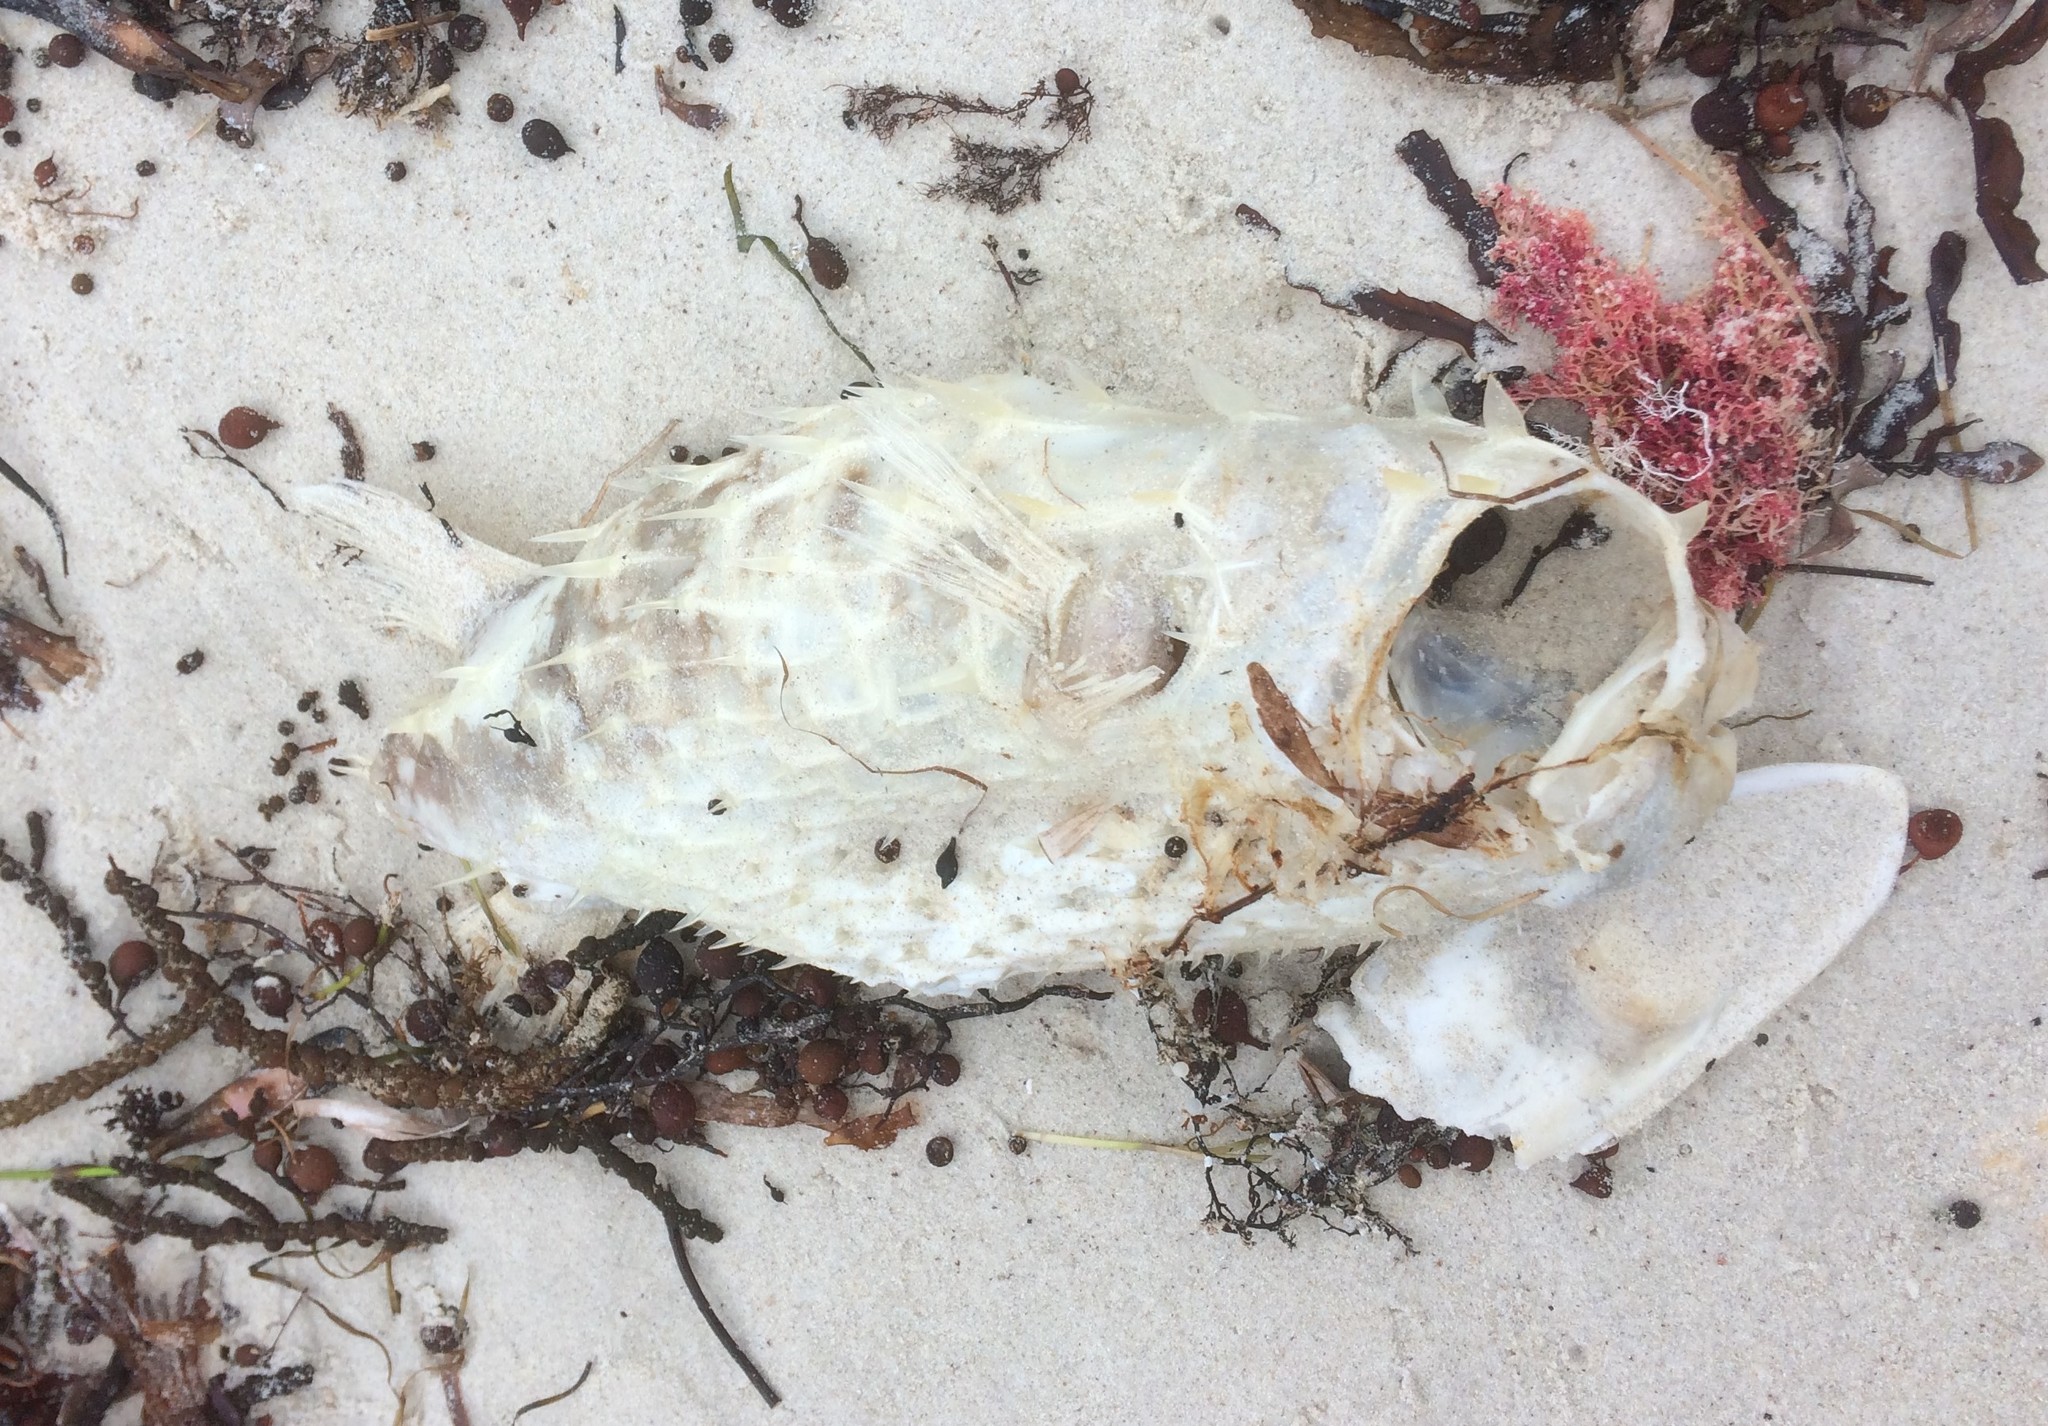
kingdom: Animalia
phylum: Chordata
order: Tetraodontiformes
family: Diodontidae
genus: Allomycterus
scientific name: Allomycterus pilatus
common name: No common name
